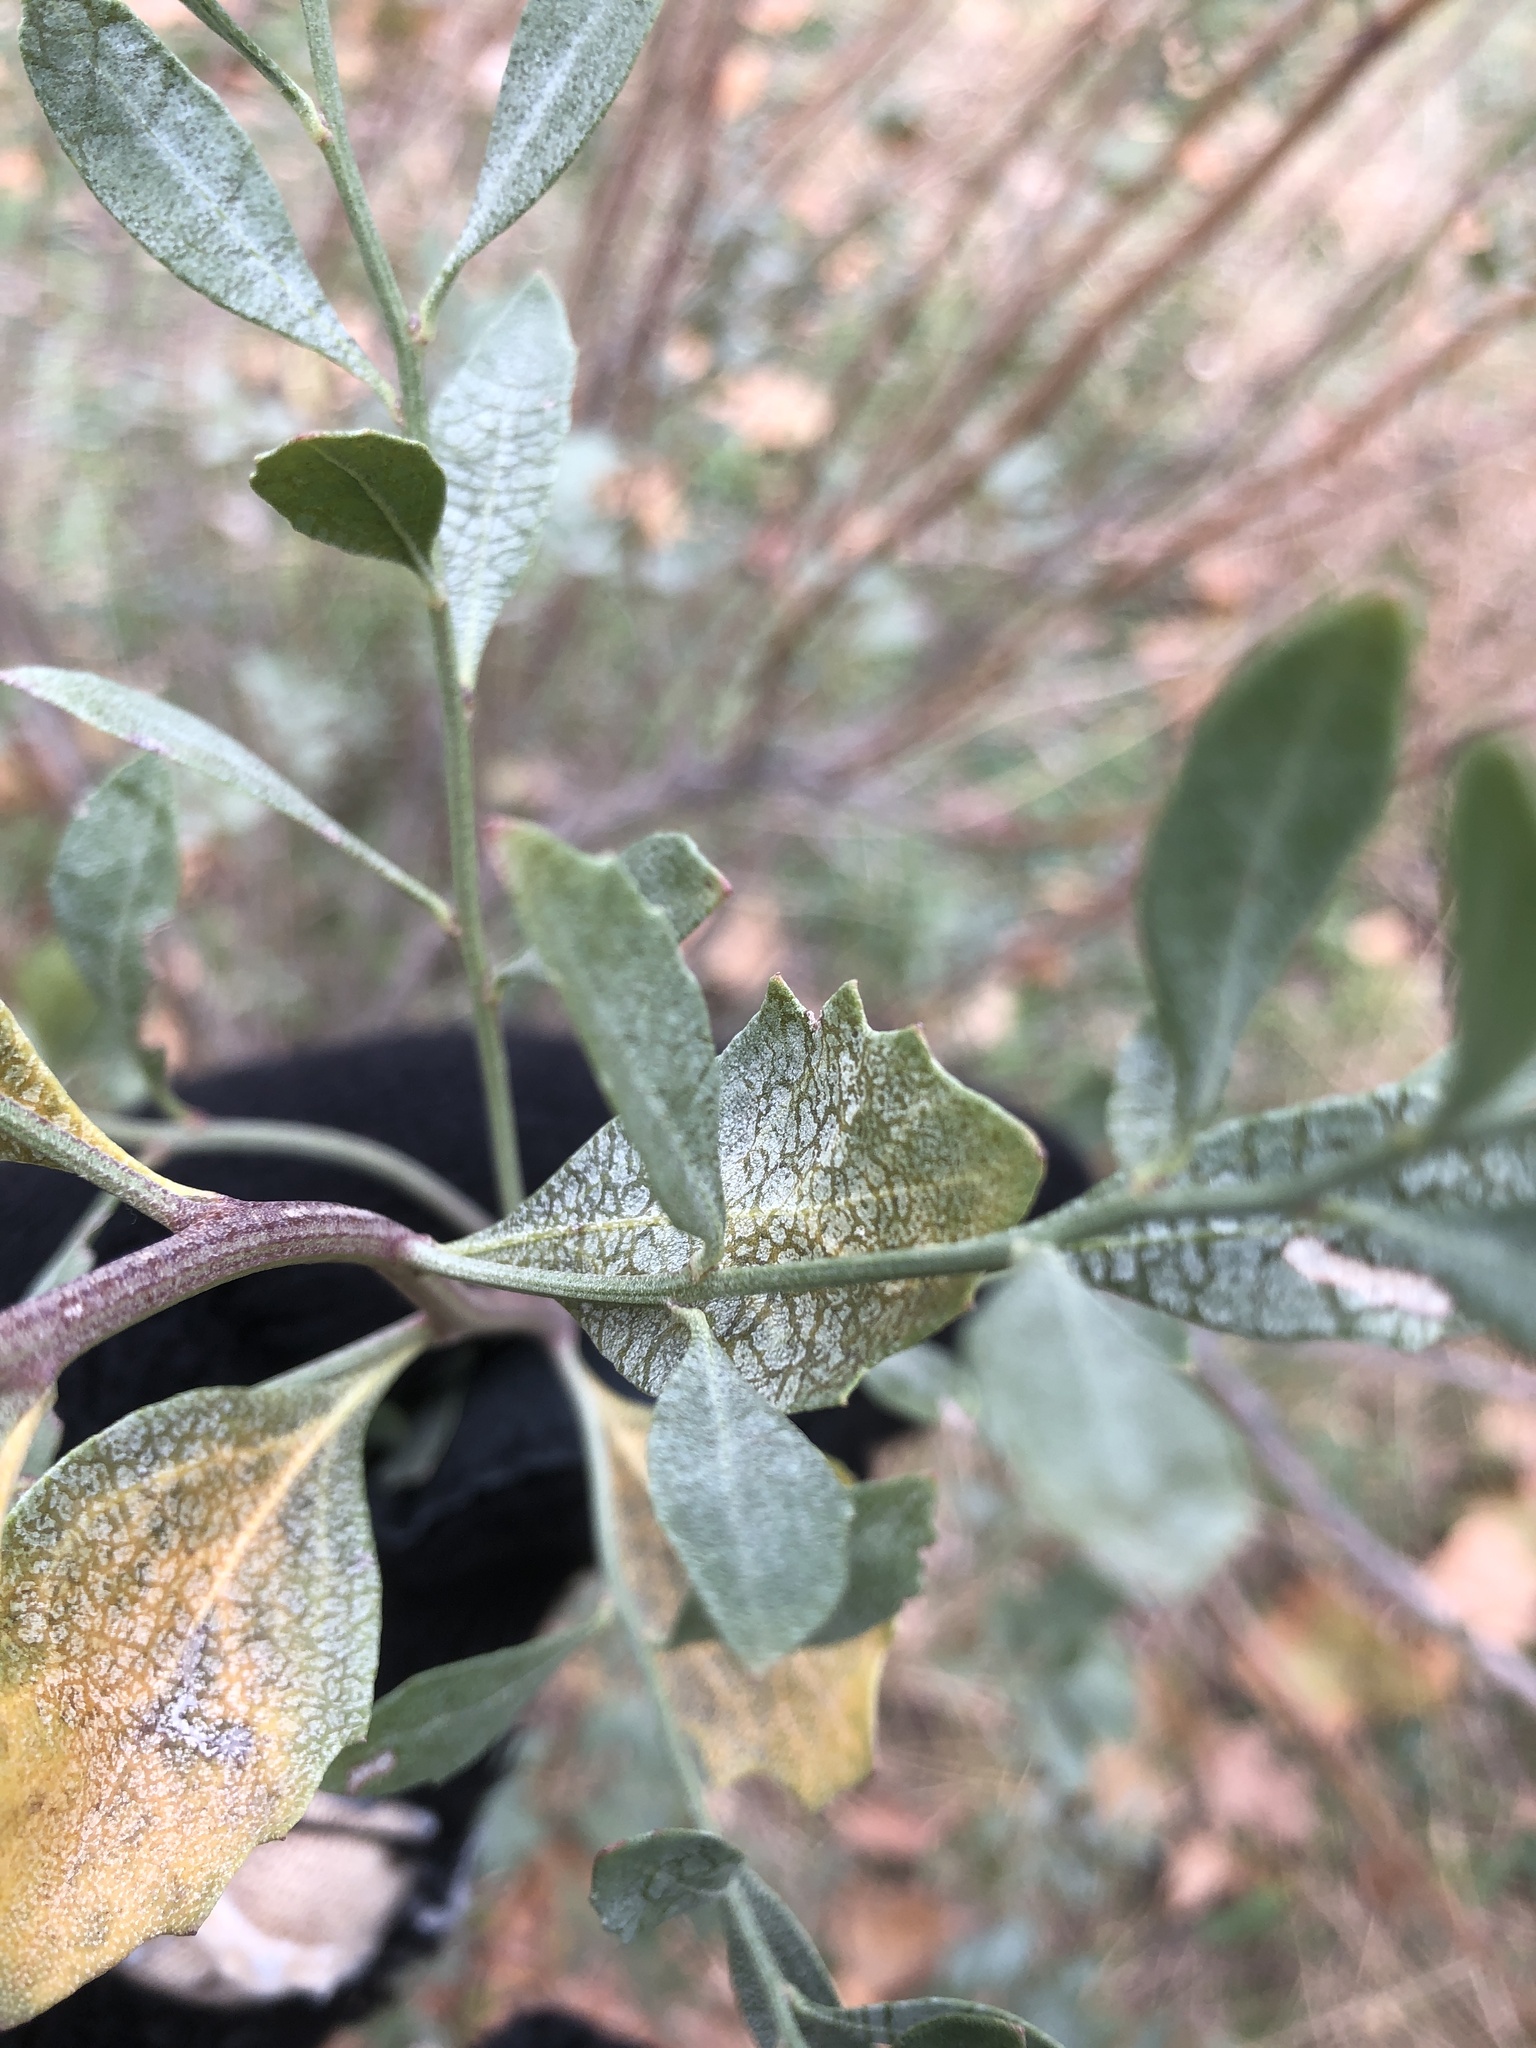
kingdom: Plantae
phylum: Tracheophyta
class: Magnoliopsida
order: Asterales
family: Asteraceae
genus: Baccharis
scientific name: Baccharis halimifolia
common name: Eastern baccharis
